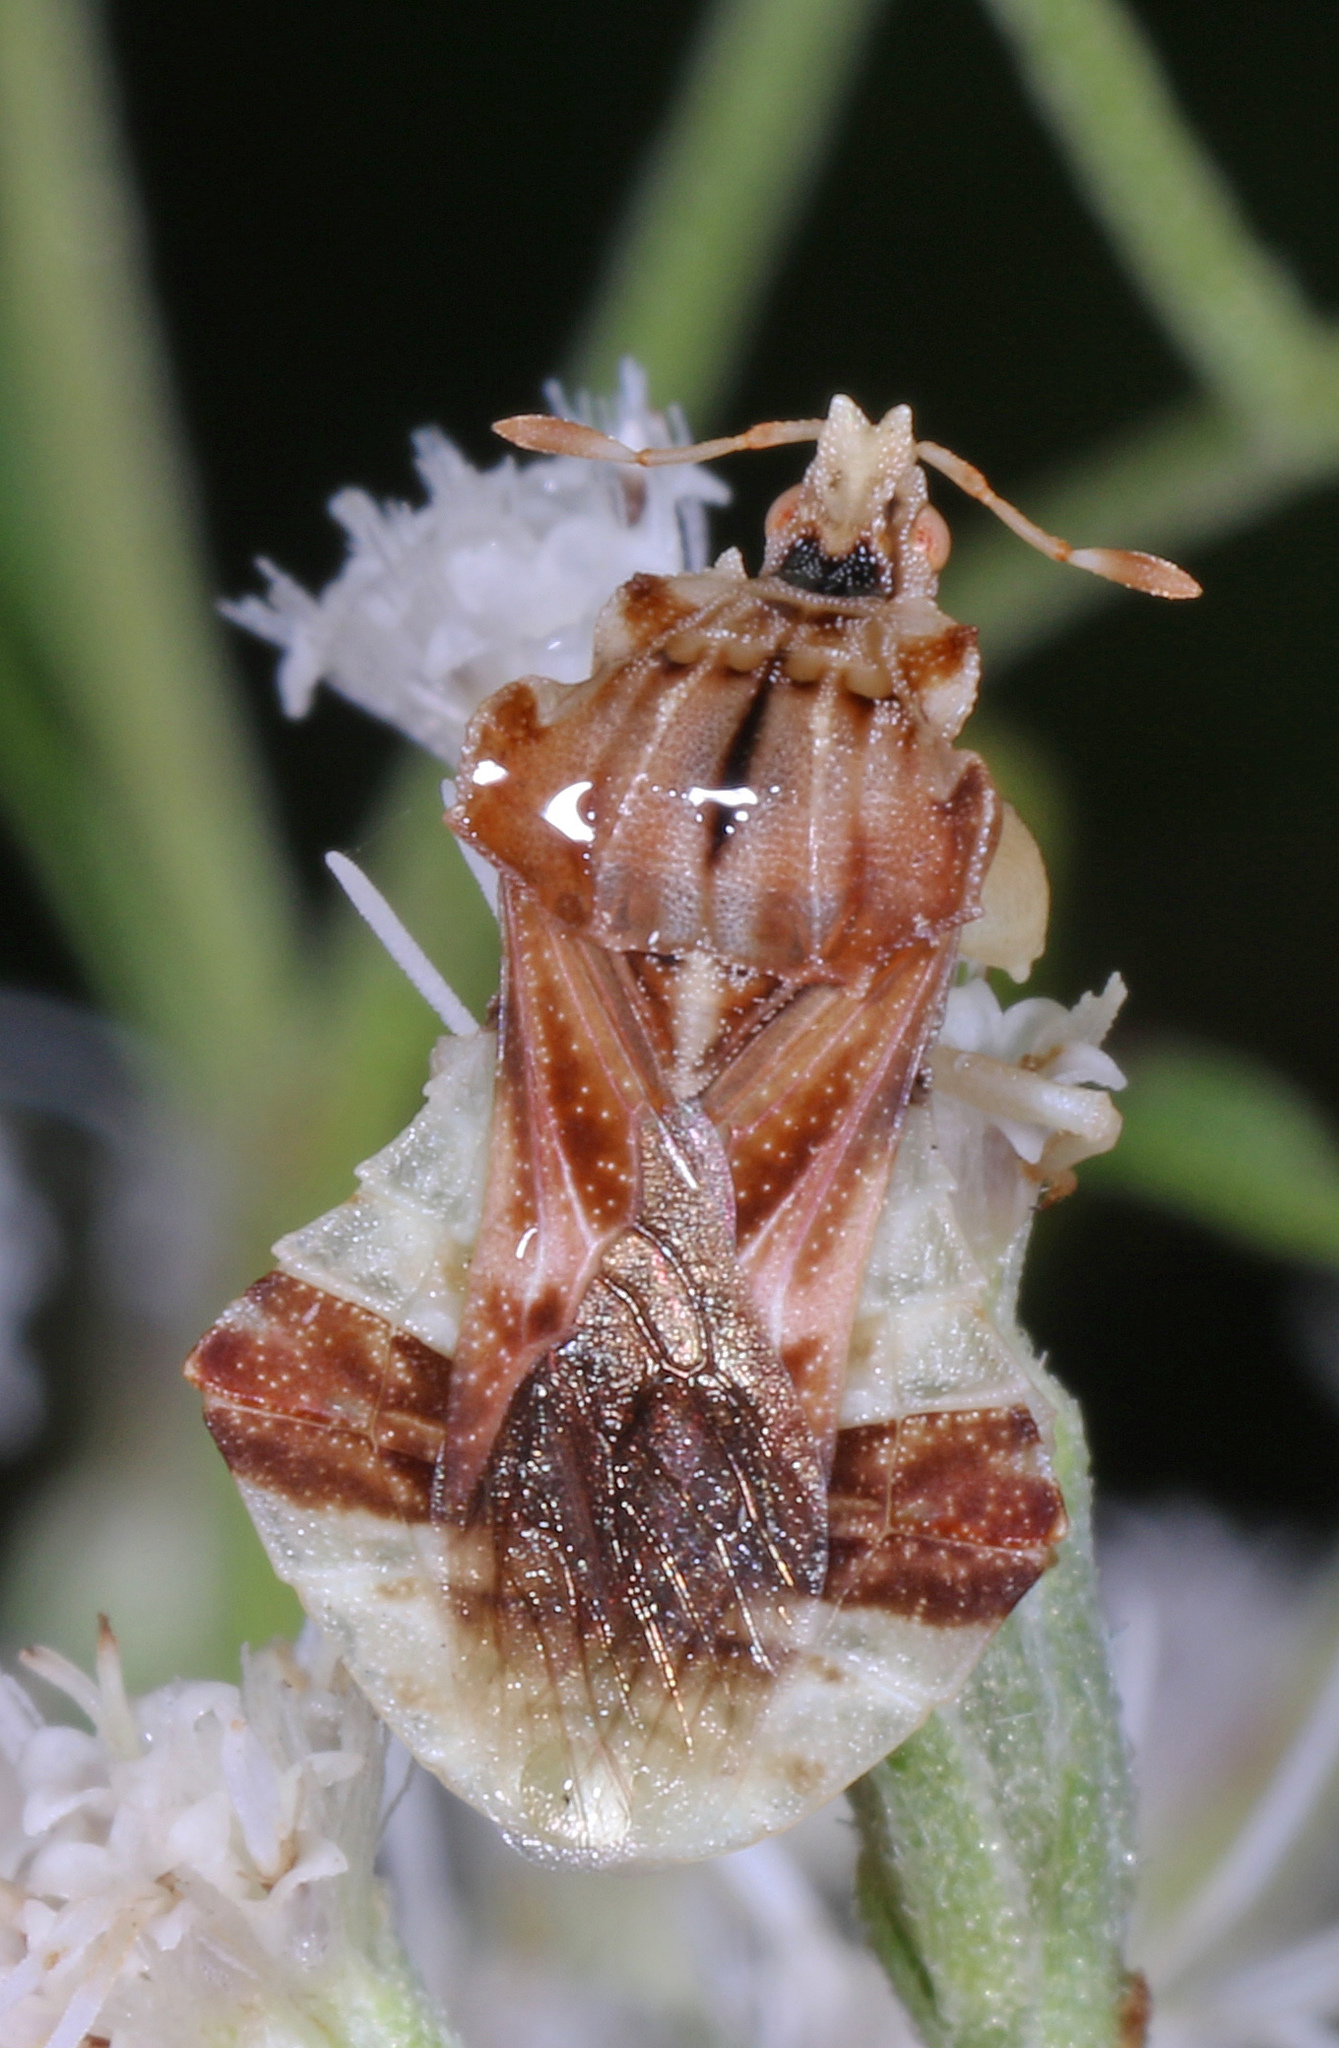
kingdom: Animalia
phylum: Arthropoda
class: Insecta
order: Hemiptera
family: Reduviidae
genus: Phymata
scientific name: Phymata fasciata
